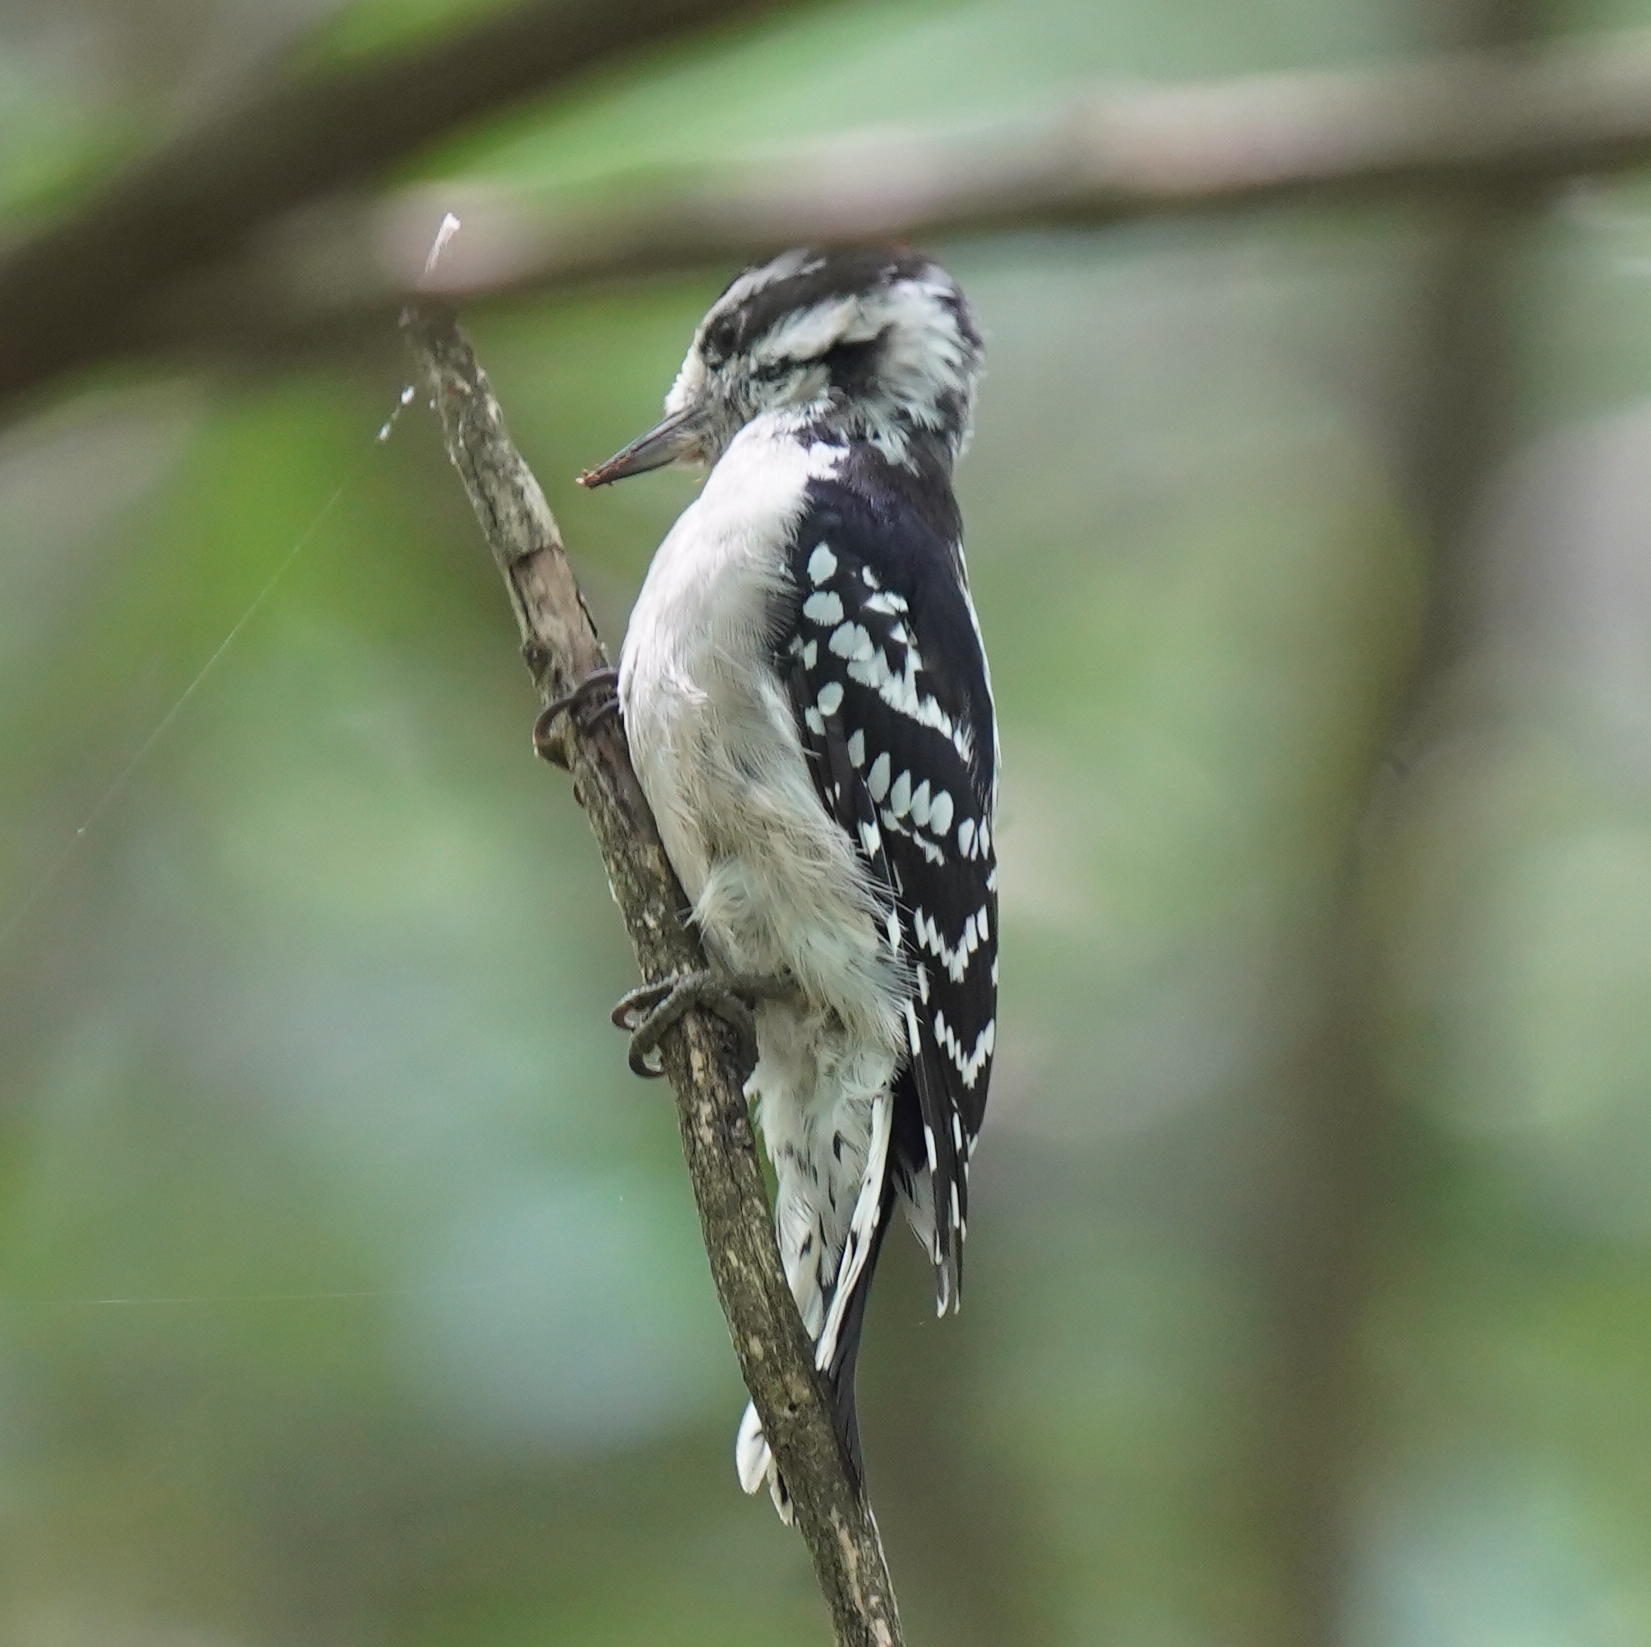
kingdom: Animalia
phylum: Chordata
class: Aves
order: Piciformes
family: Picidae
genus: Dryobates
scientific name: Dryobates pubescens
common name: Downy woodpecker
